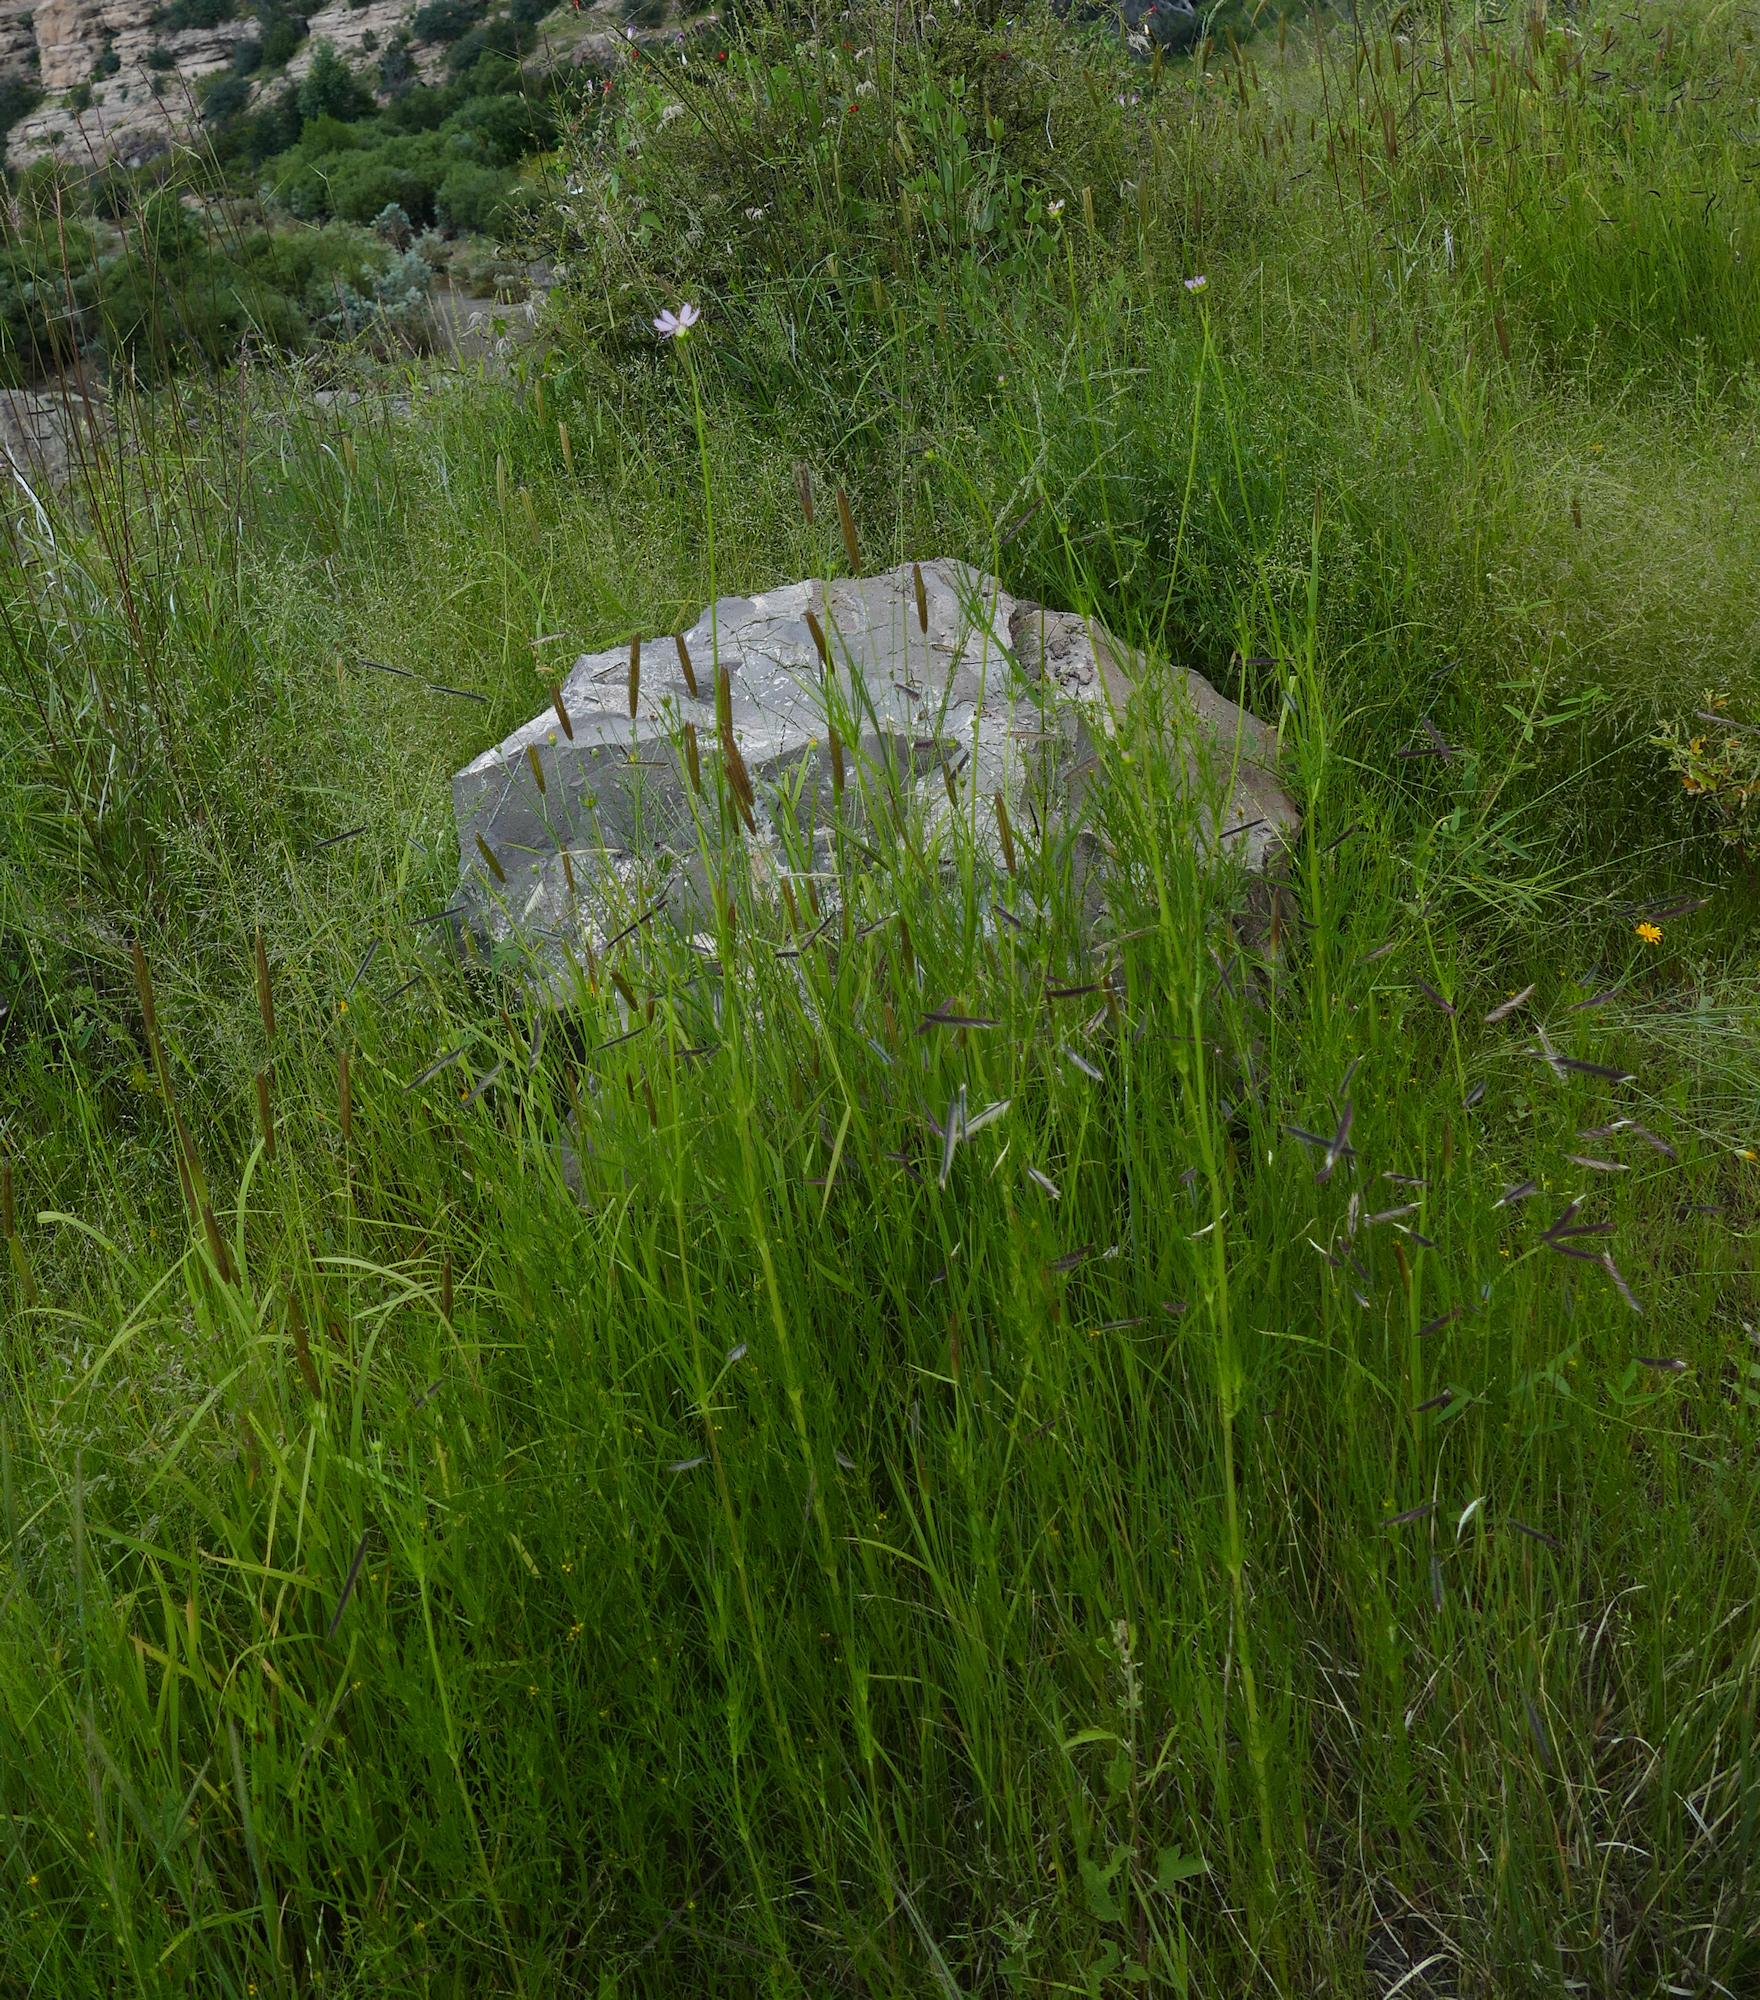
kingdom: Plantae
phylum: Tracheophyta
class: Magnoliopsida
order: Asterales
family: Asteraceae
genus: Cosmos
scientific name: Cosmos parviflorus
